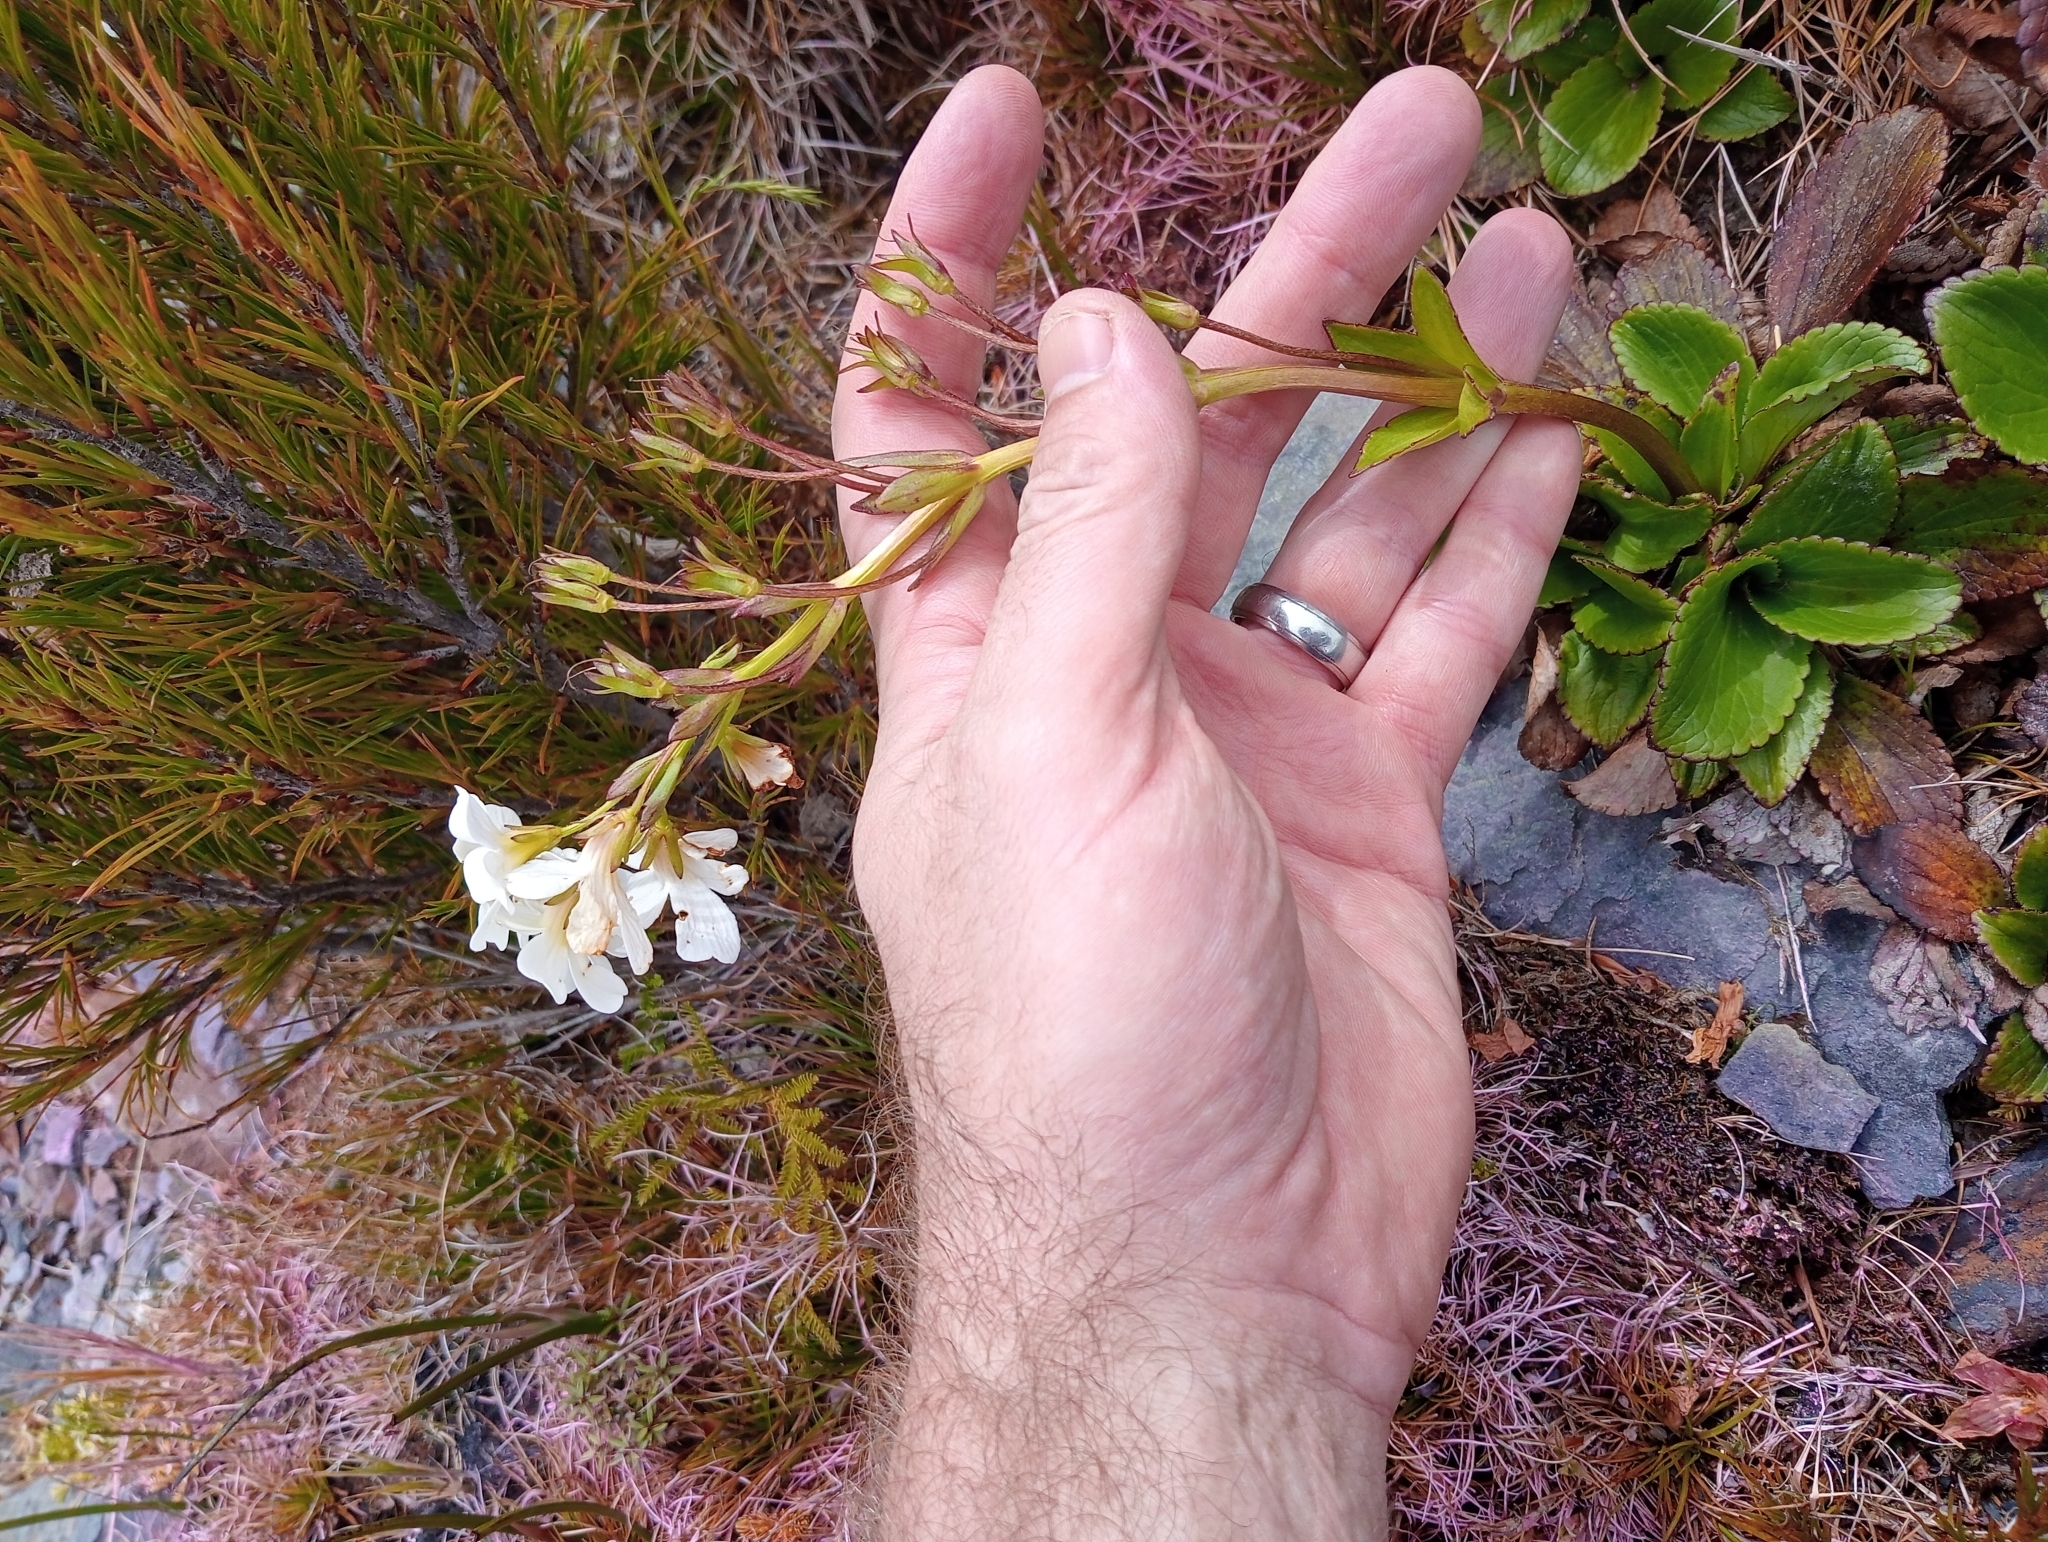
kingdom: Plantae
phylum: Tracheophyta
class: Magnoliopsida
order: Lamiales
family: Plantaginaceae
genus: Ourisia
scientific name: Ourisia calycina
